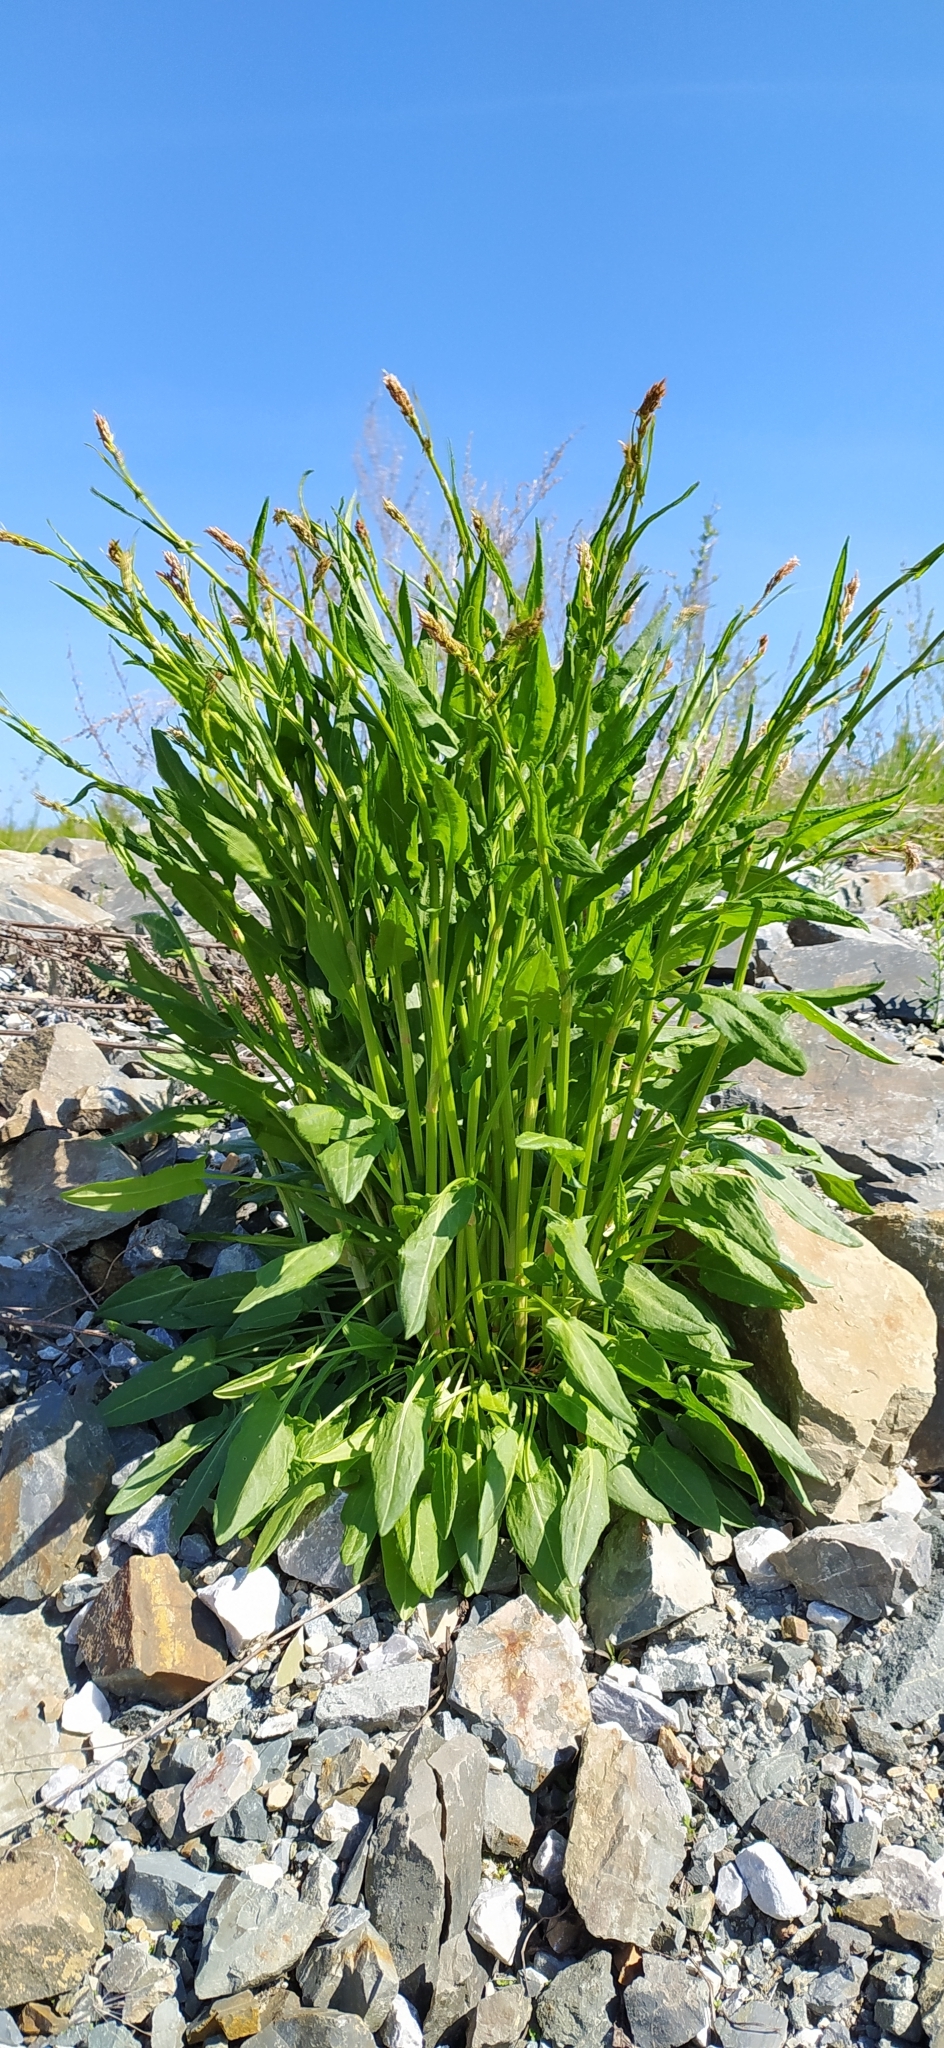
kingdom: Plantae
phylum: Tracheophyta
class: Magnoliopsida
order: Caryophyllales
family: Polygonaceae
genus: Rumex
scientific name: Rumex acetosa
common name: Garden sorrel
